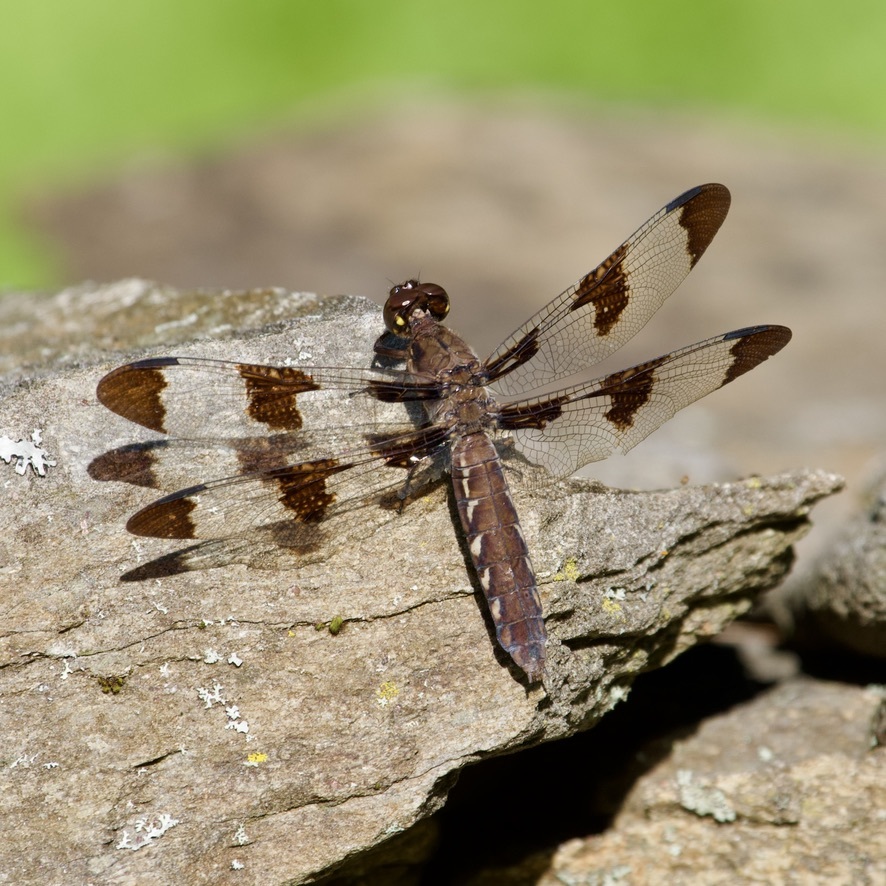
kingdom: Animalia
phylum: Arthropoda
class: Insecta
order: Odonata
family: Libellulidae
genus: Plathemis
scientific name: Plathemis lydia
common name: Common whitetail
